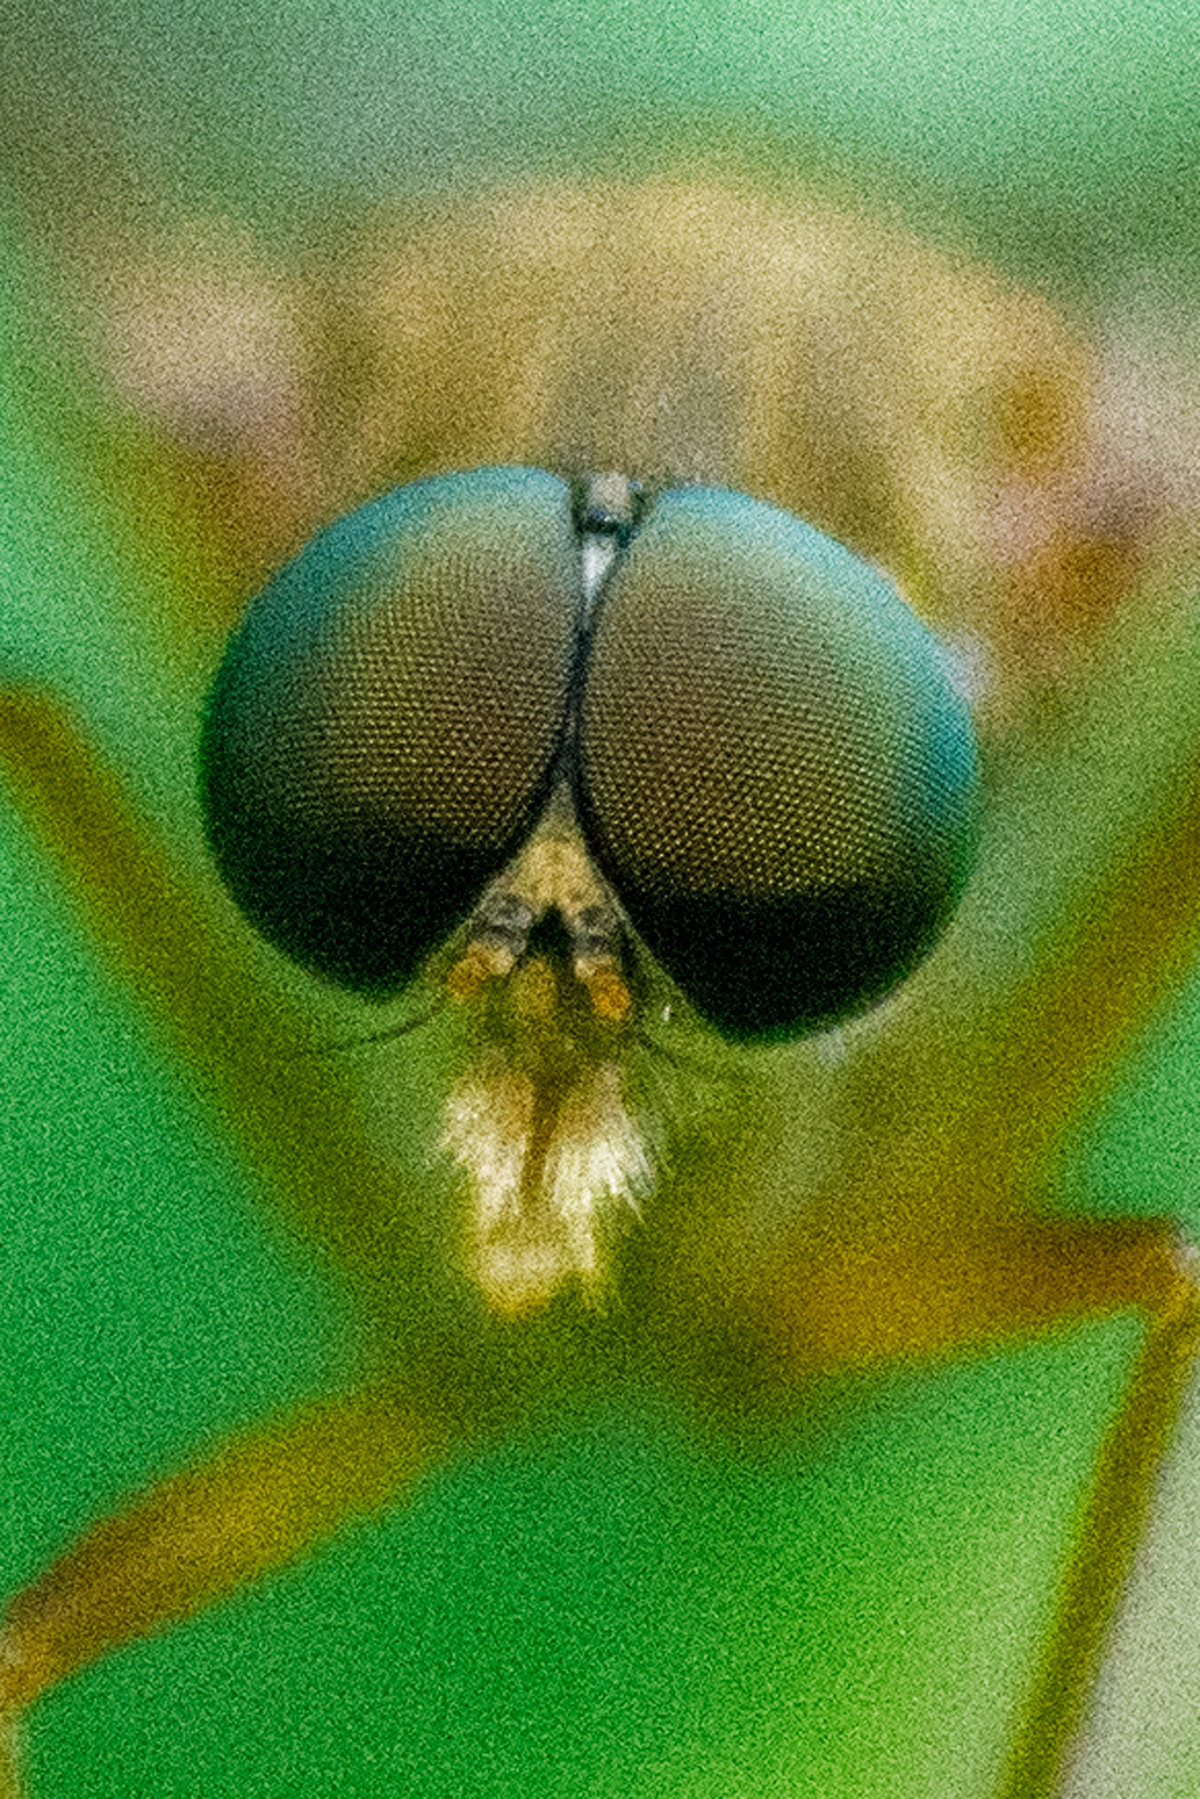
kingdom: Animalia
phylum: Arthropoda
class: Insecta
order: Diptera
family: Rhagionidae
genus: Rhagio
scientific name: Rhagio tringaria
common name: Marsh snipefly
